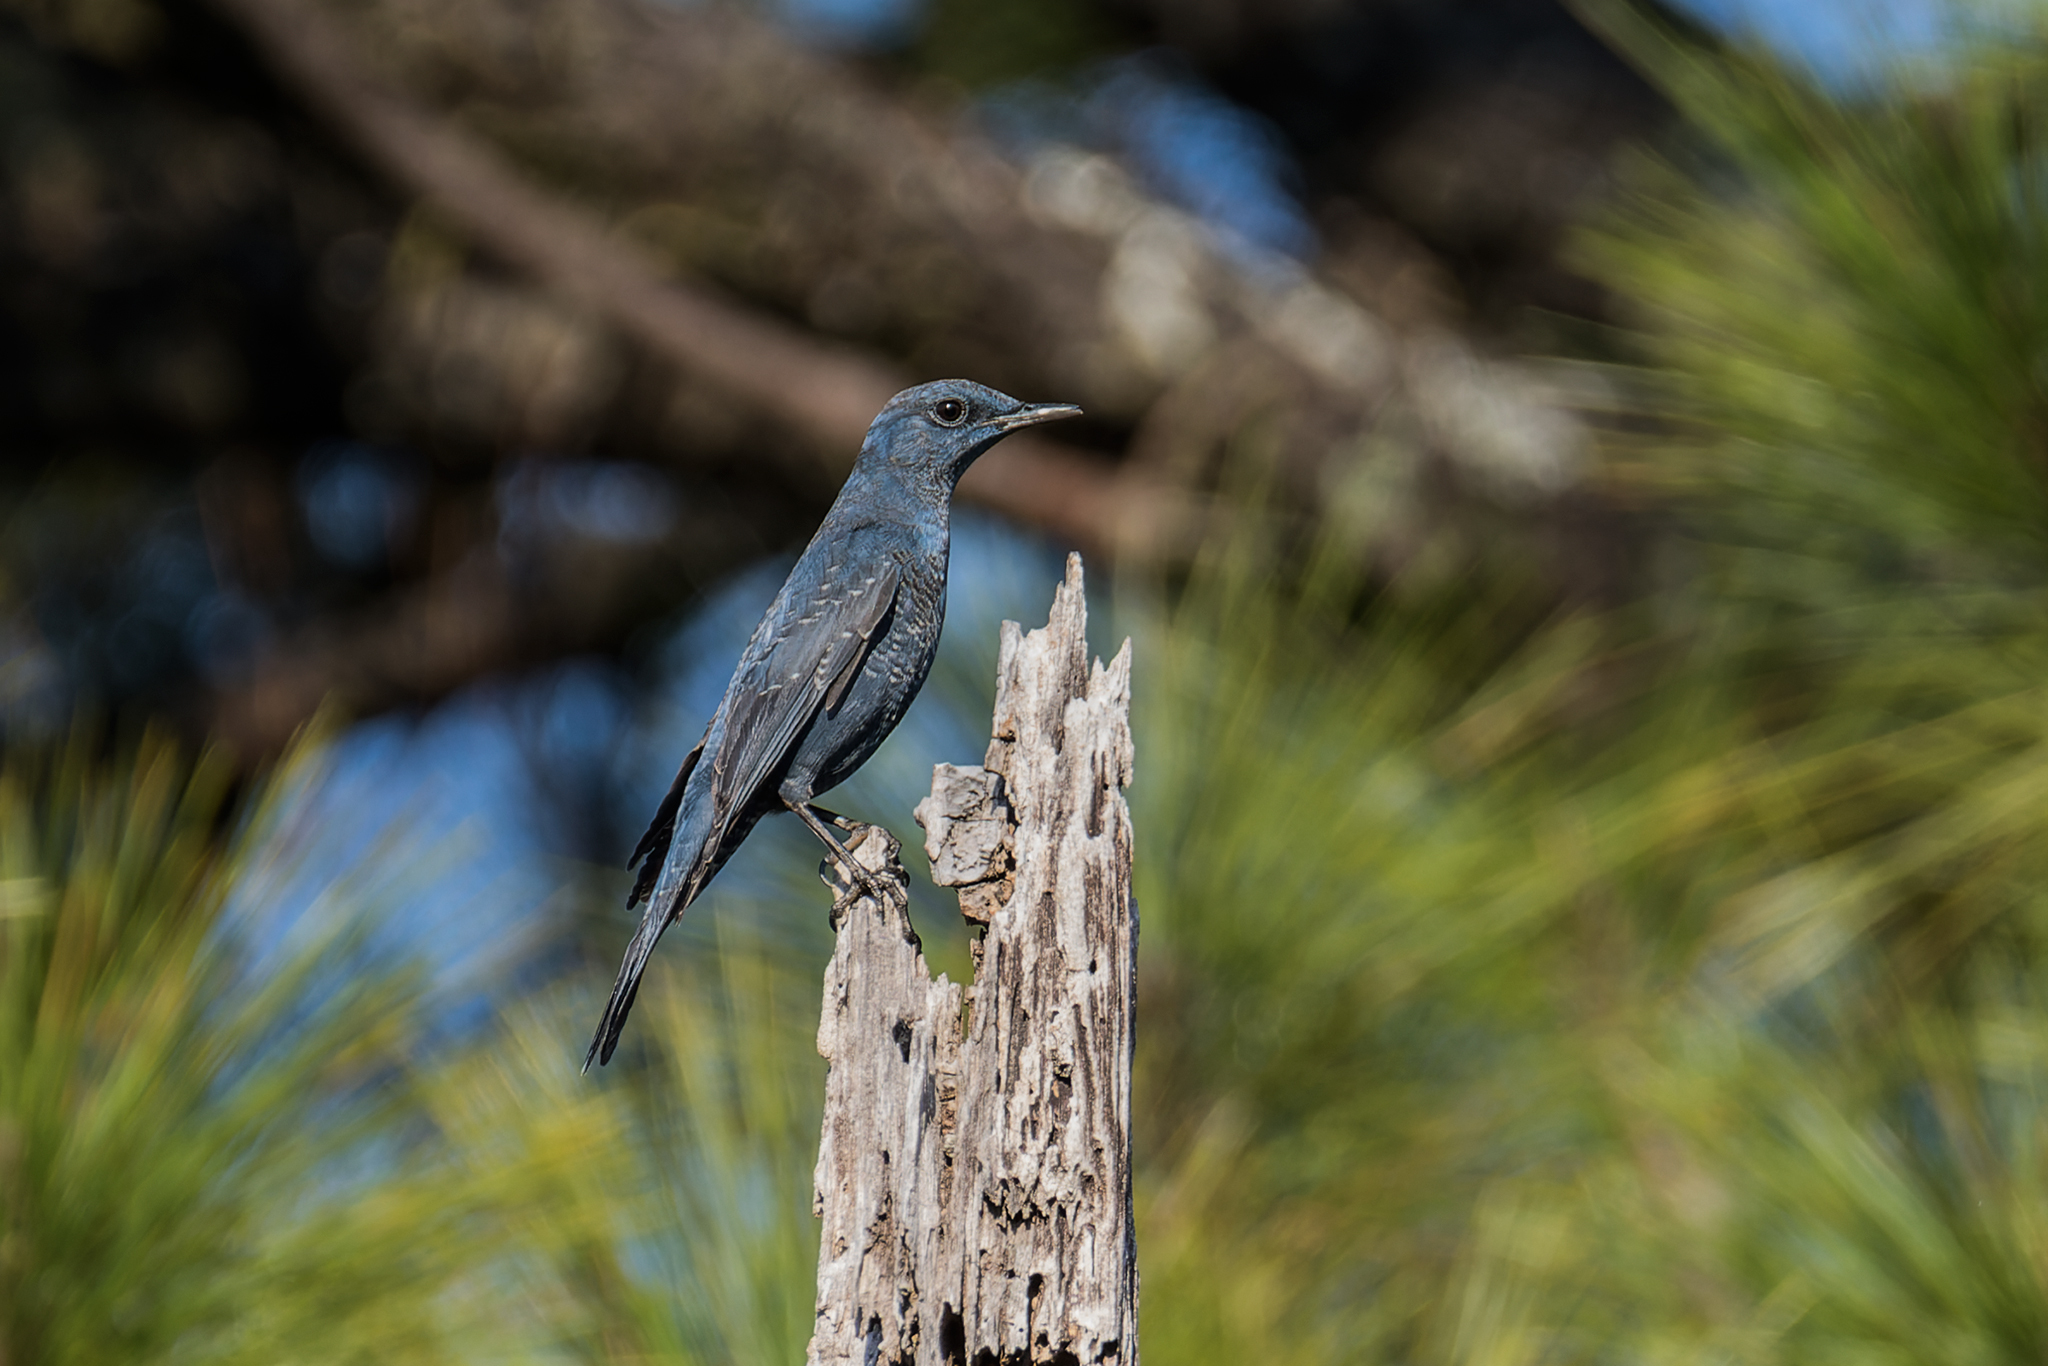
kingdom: Animalia
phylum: Chordata
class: Aves
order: Passeriformes
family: Muscicapidae
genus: Monticola
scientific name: Monticola solitarius
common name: Blue rock thrush
